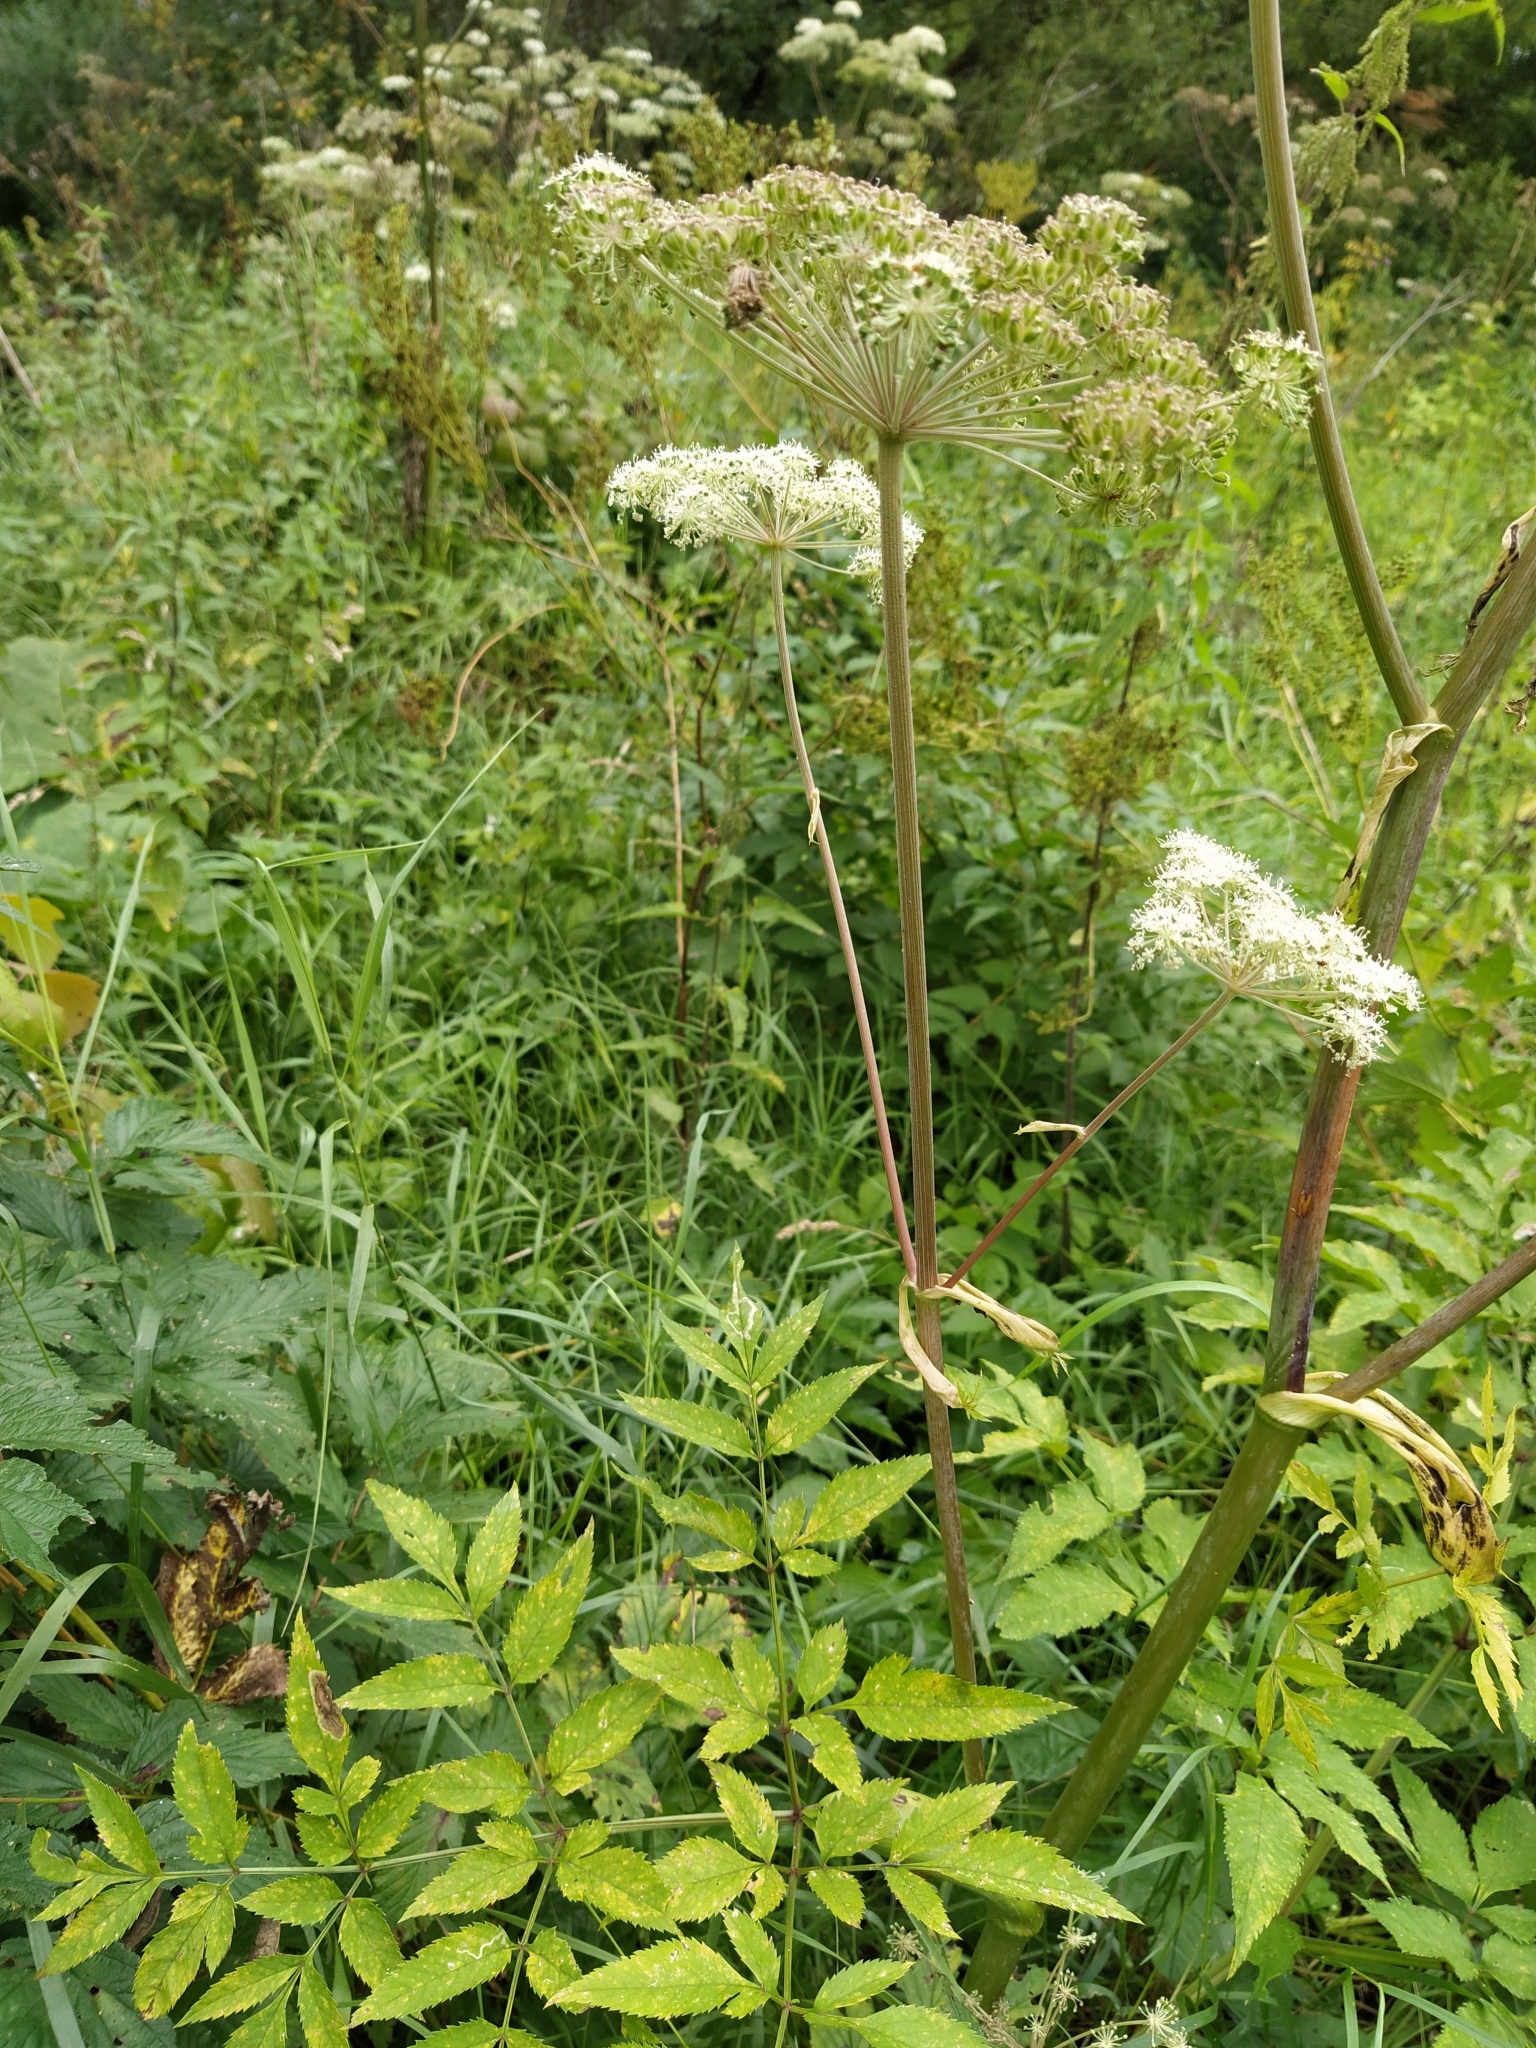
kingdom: Plantae
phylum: Tracheophyta
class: Magnoliopsida
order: Apiales
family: Apiaceae
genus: Angelica
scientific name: Angelica sylvestris
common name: Wild angelica
